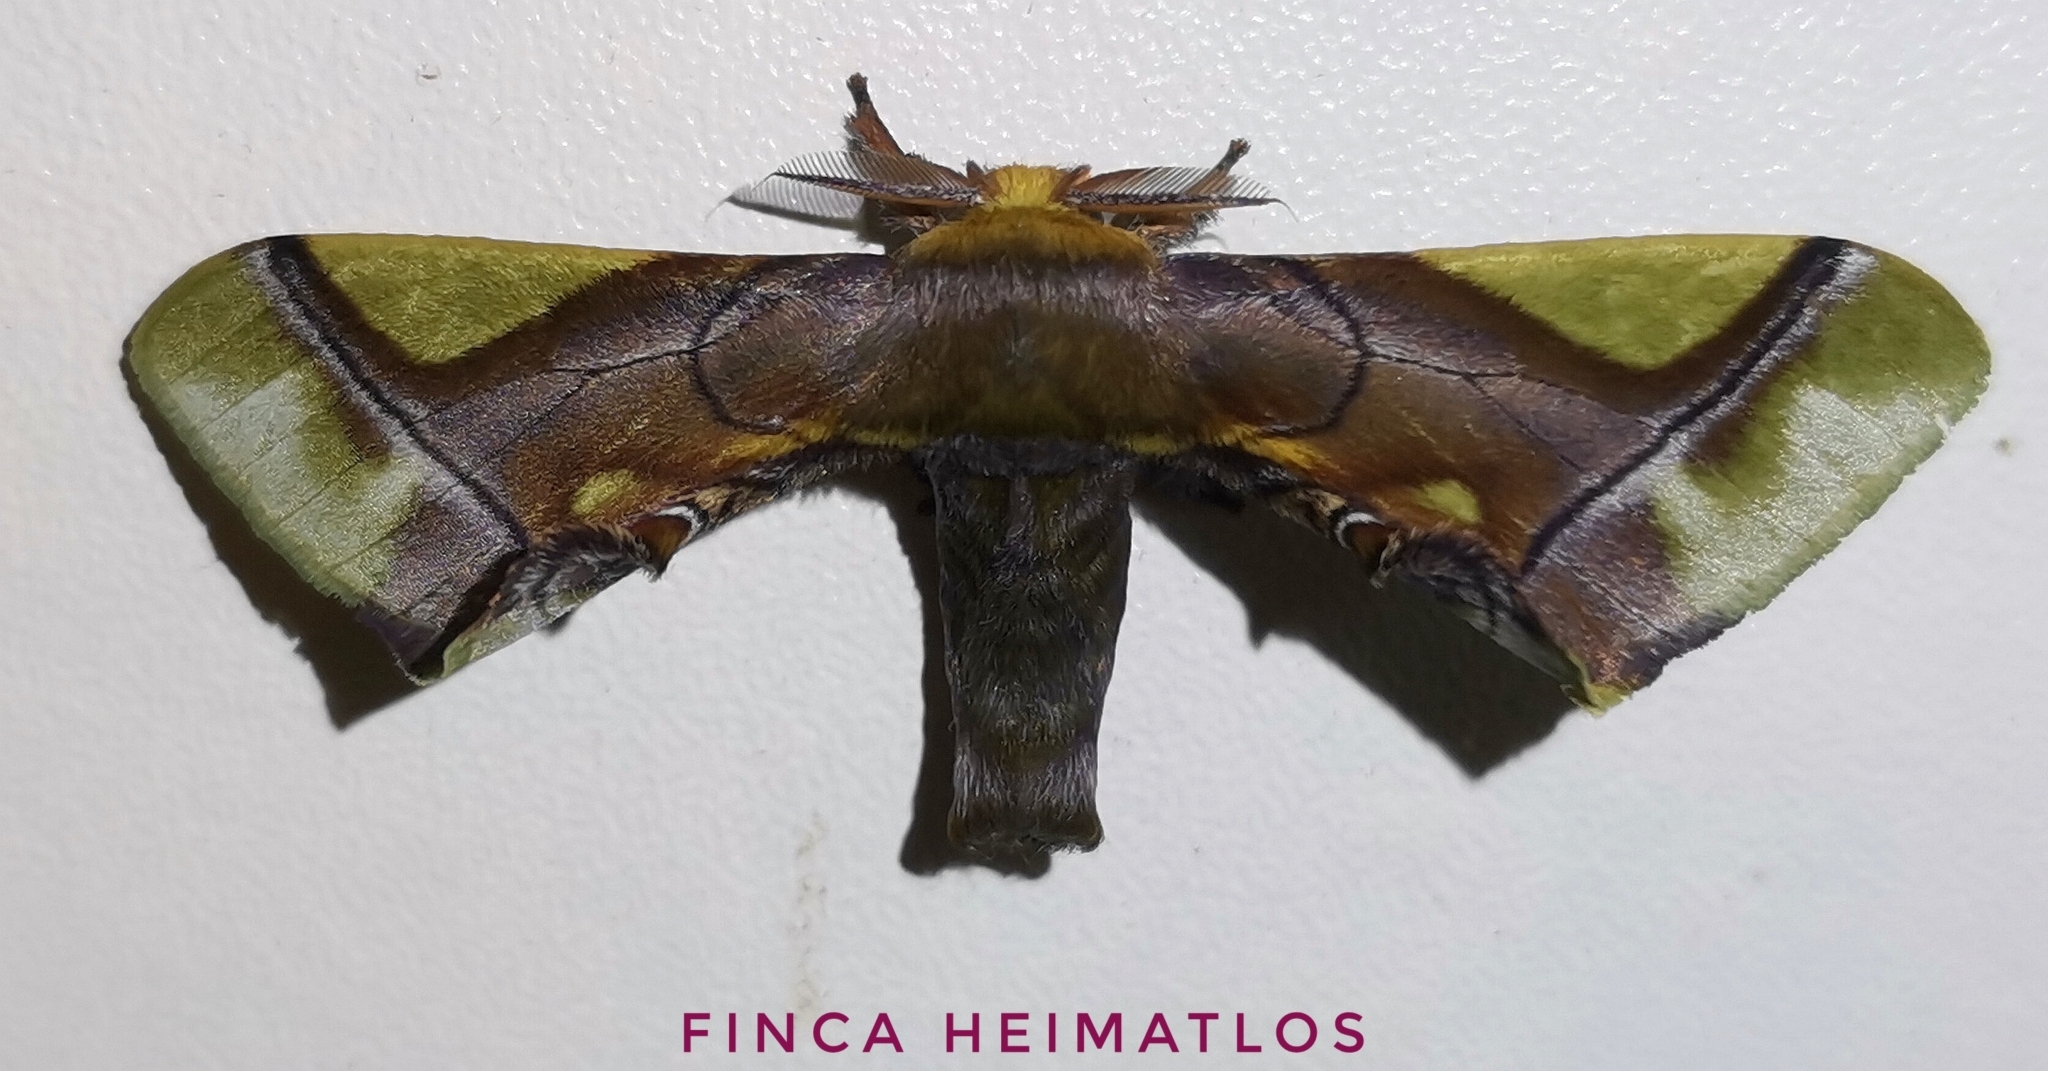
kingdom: Animalia
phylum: Arthropoda
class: Insecta
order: Lepidoptera
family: Bombycidae
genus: Epia
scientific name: Epia muscosa
